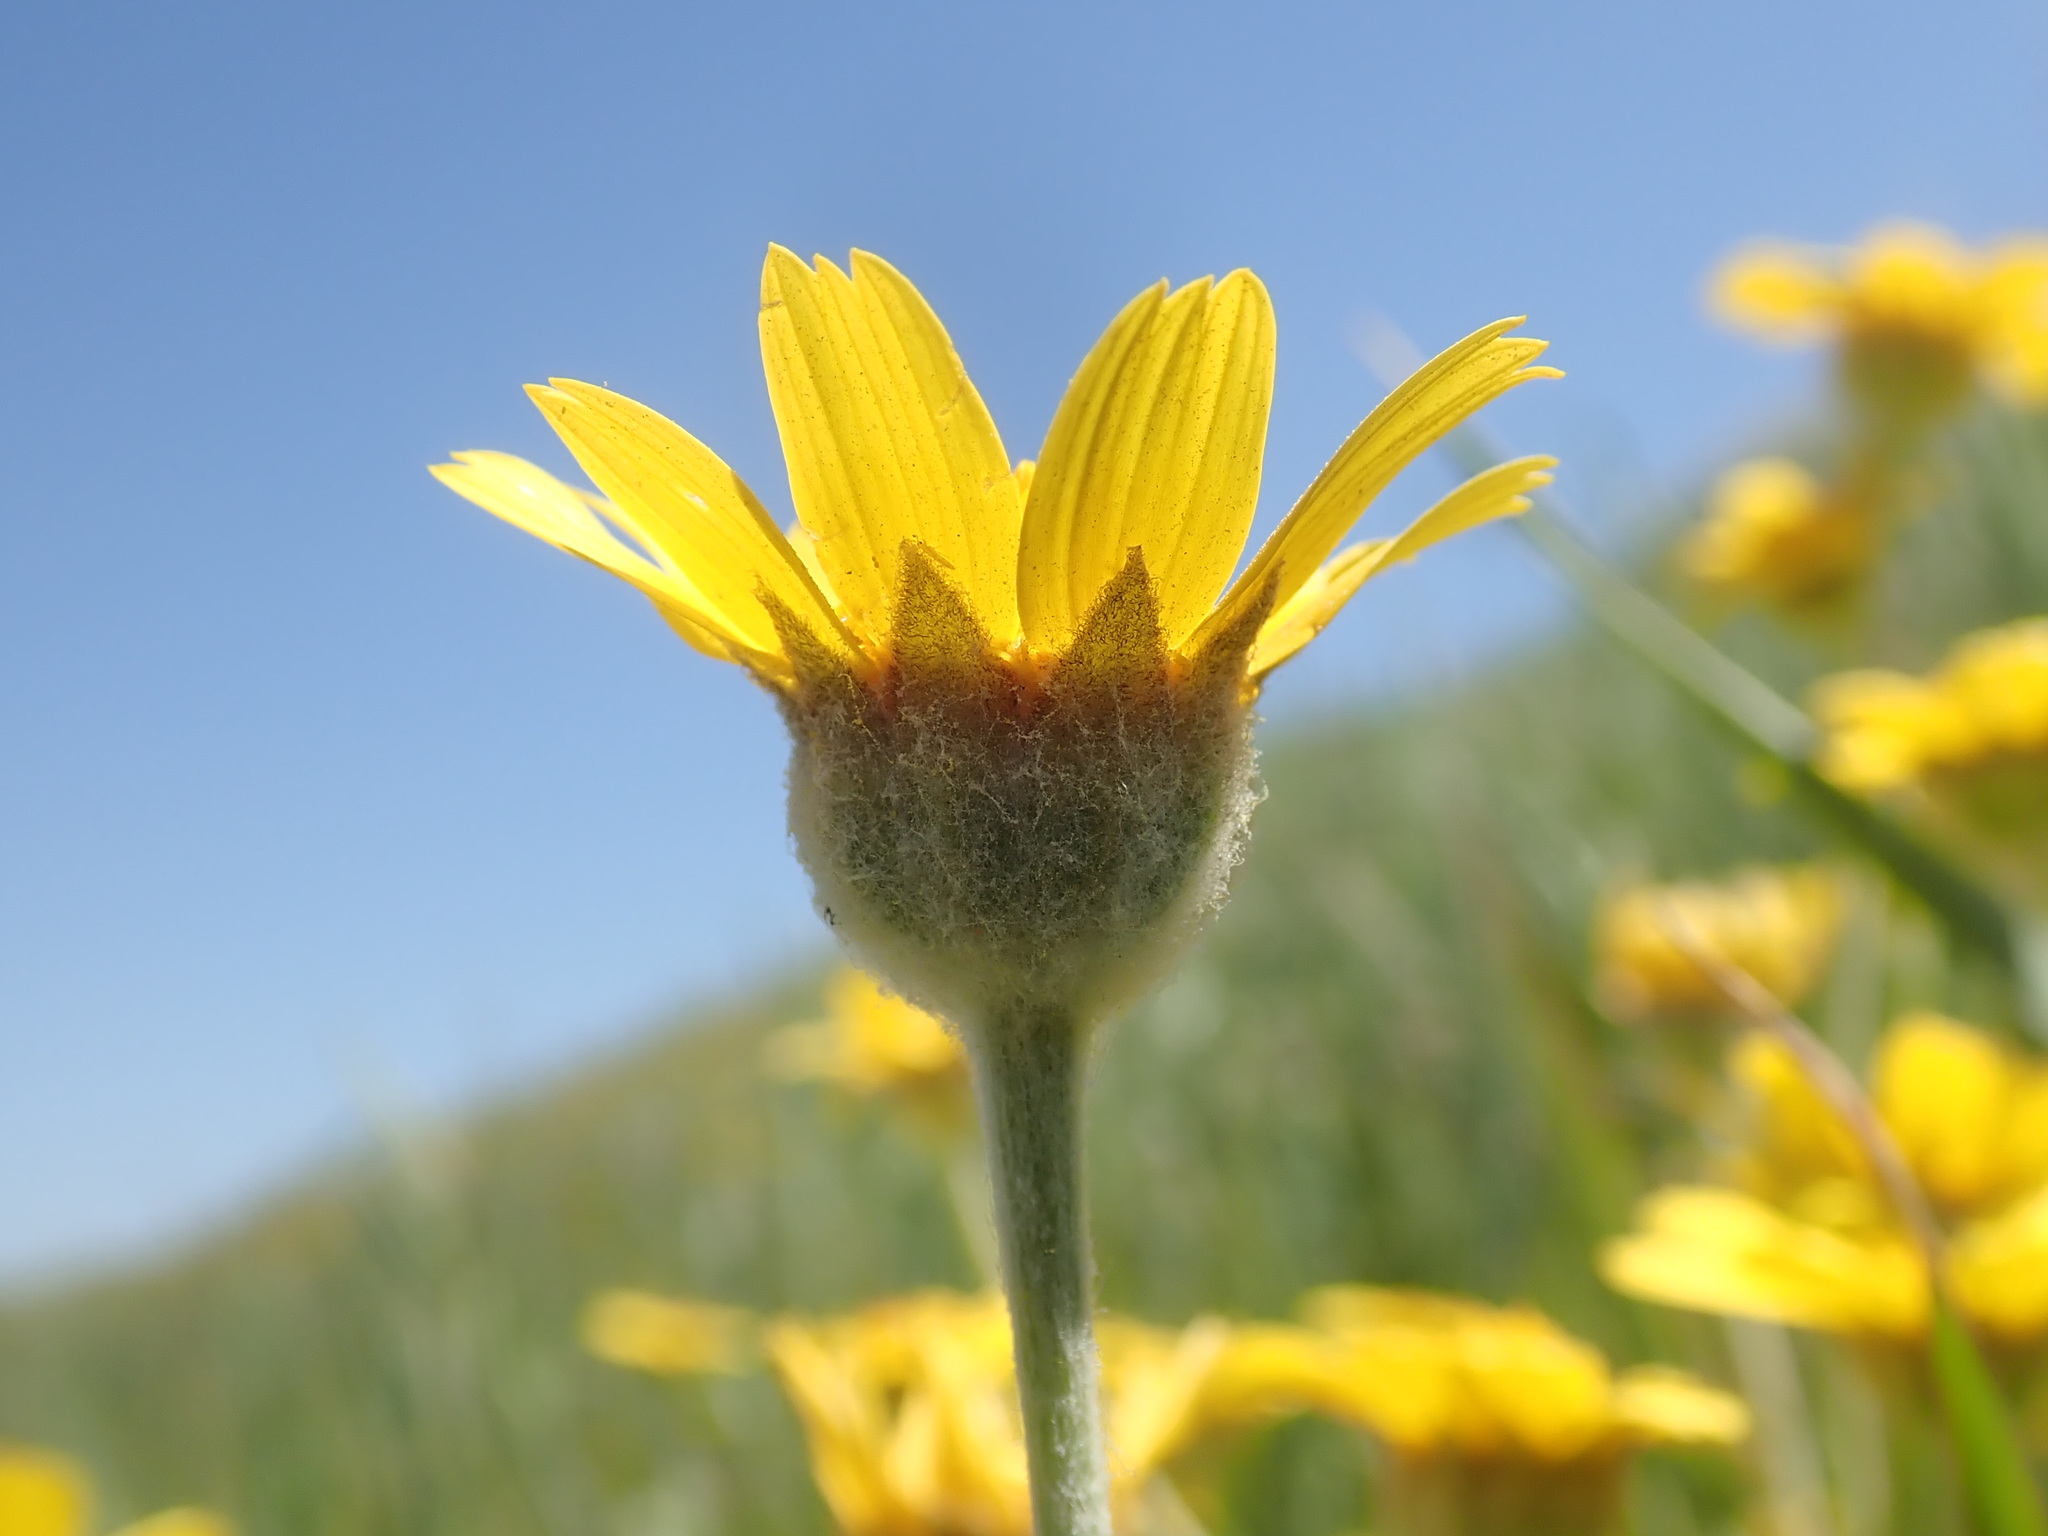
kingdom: Plantae
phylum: Tracheophyta
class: Magnoliopsida
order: Asterales
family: Asteraceae
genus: Monolopia
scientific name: Monolopia lanceolata
